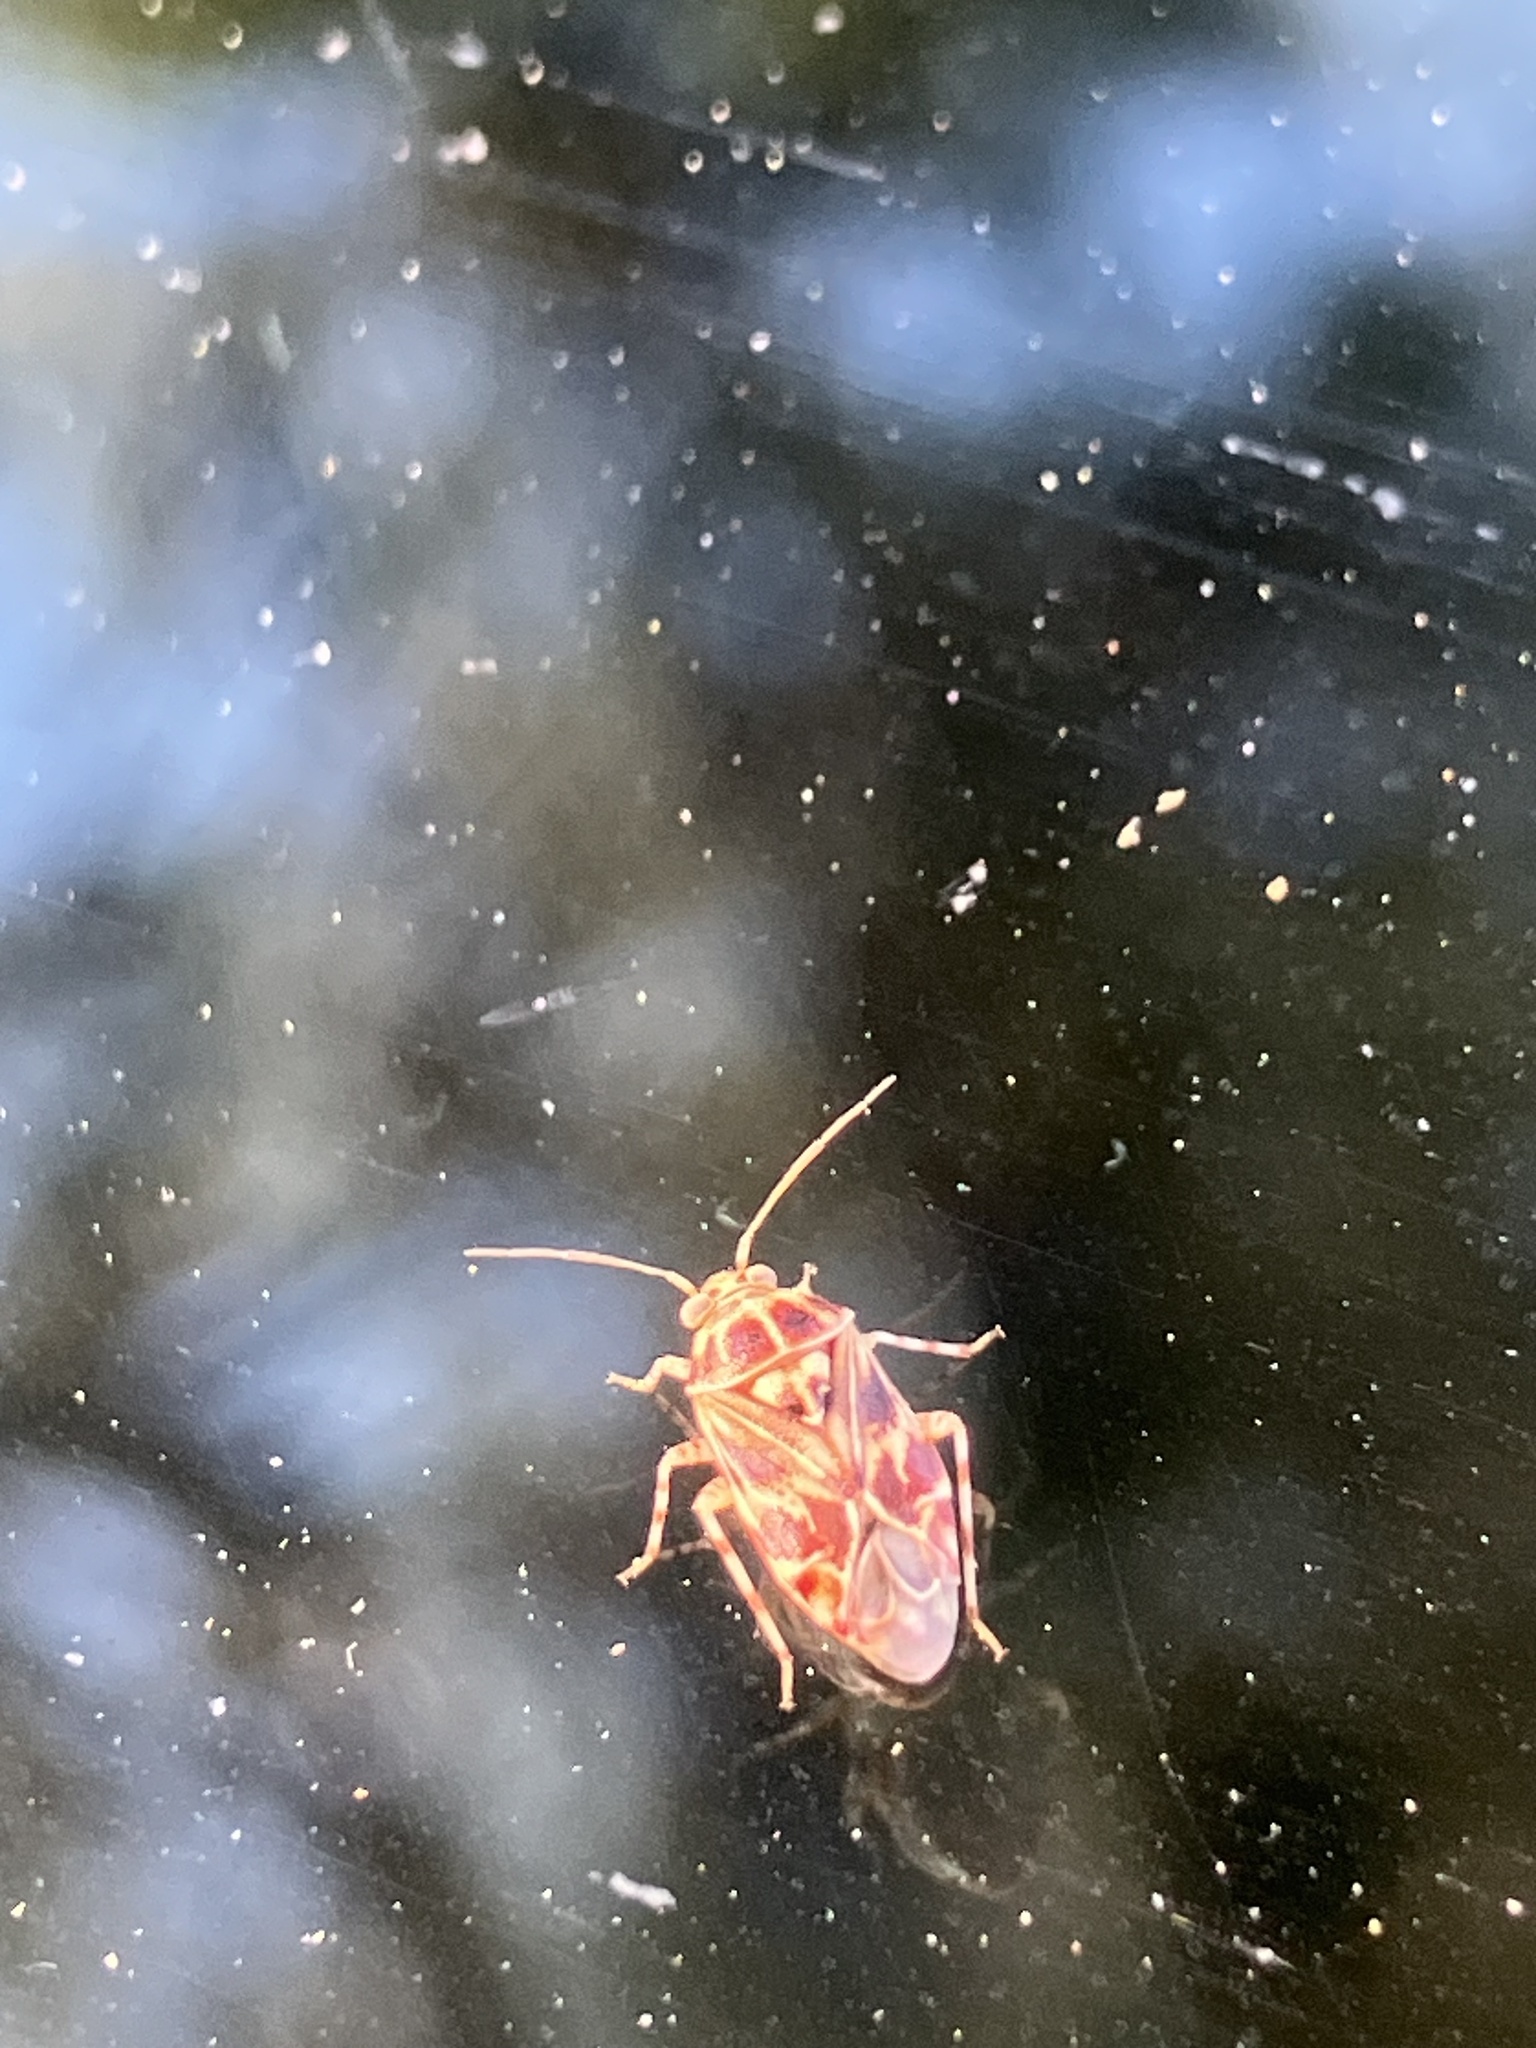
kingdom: Animalia
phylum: Arthropoda
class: Insecta
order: Hemiptera
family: Miridae
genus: Tropidosteptes
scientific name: Tropidosteptes quercicola
